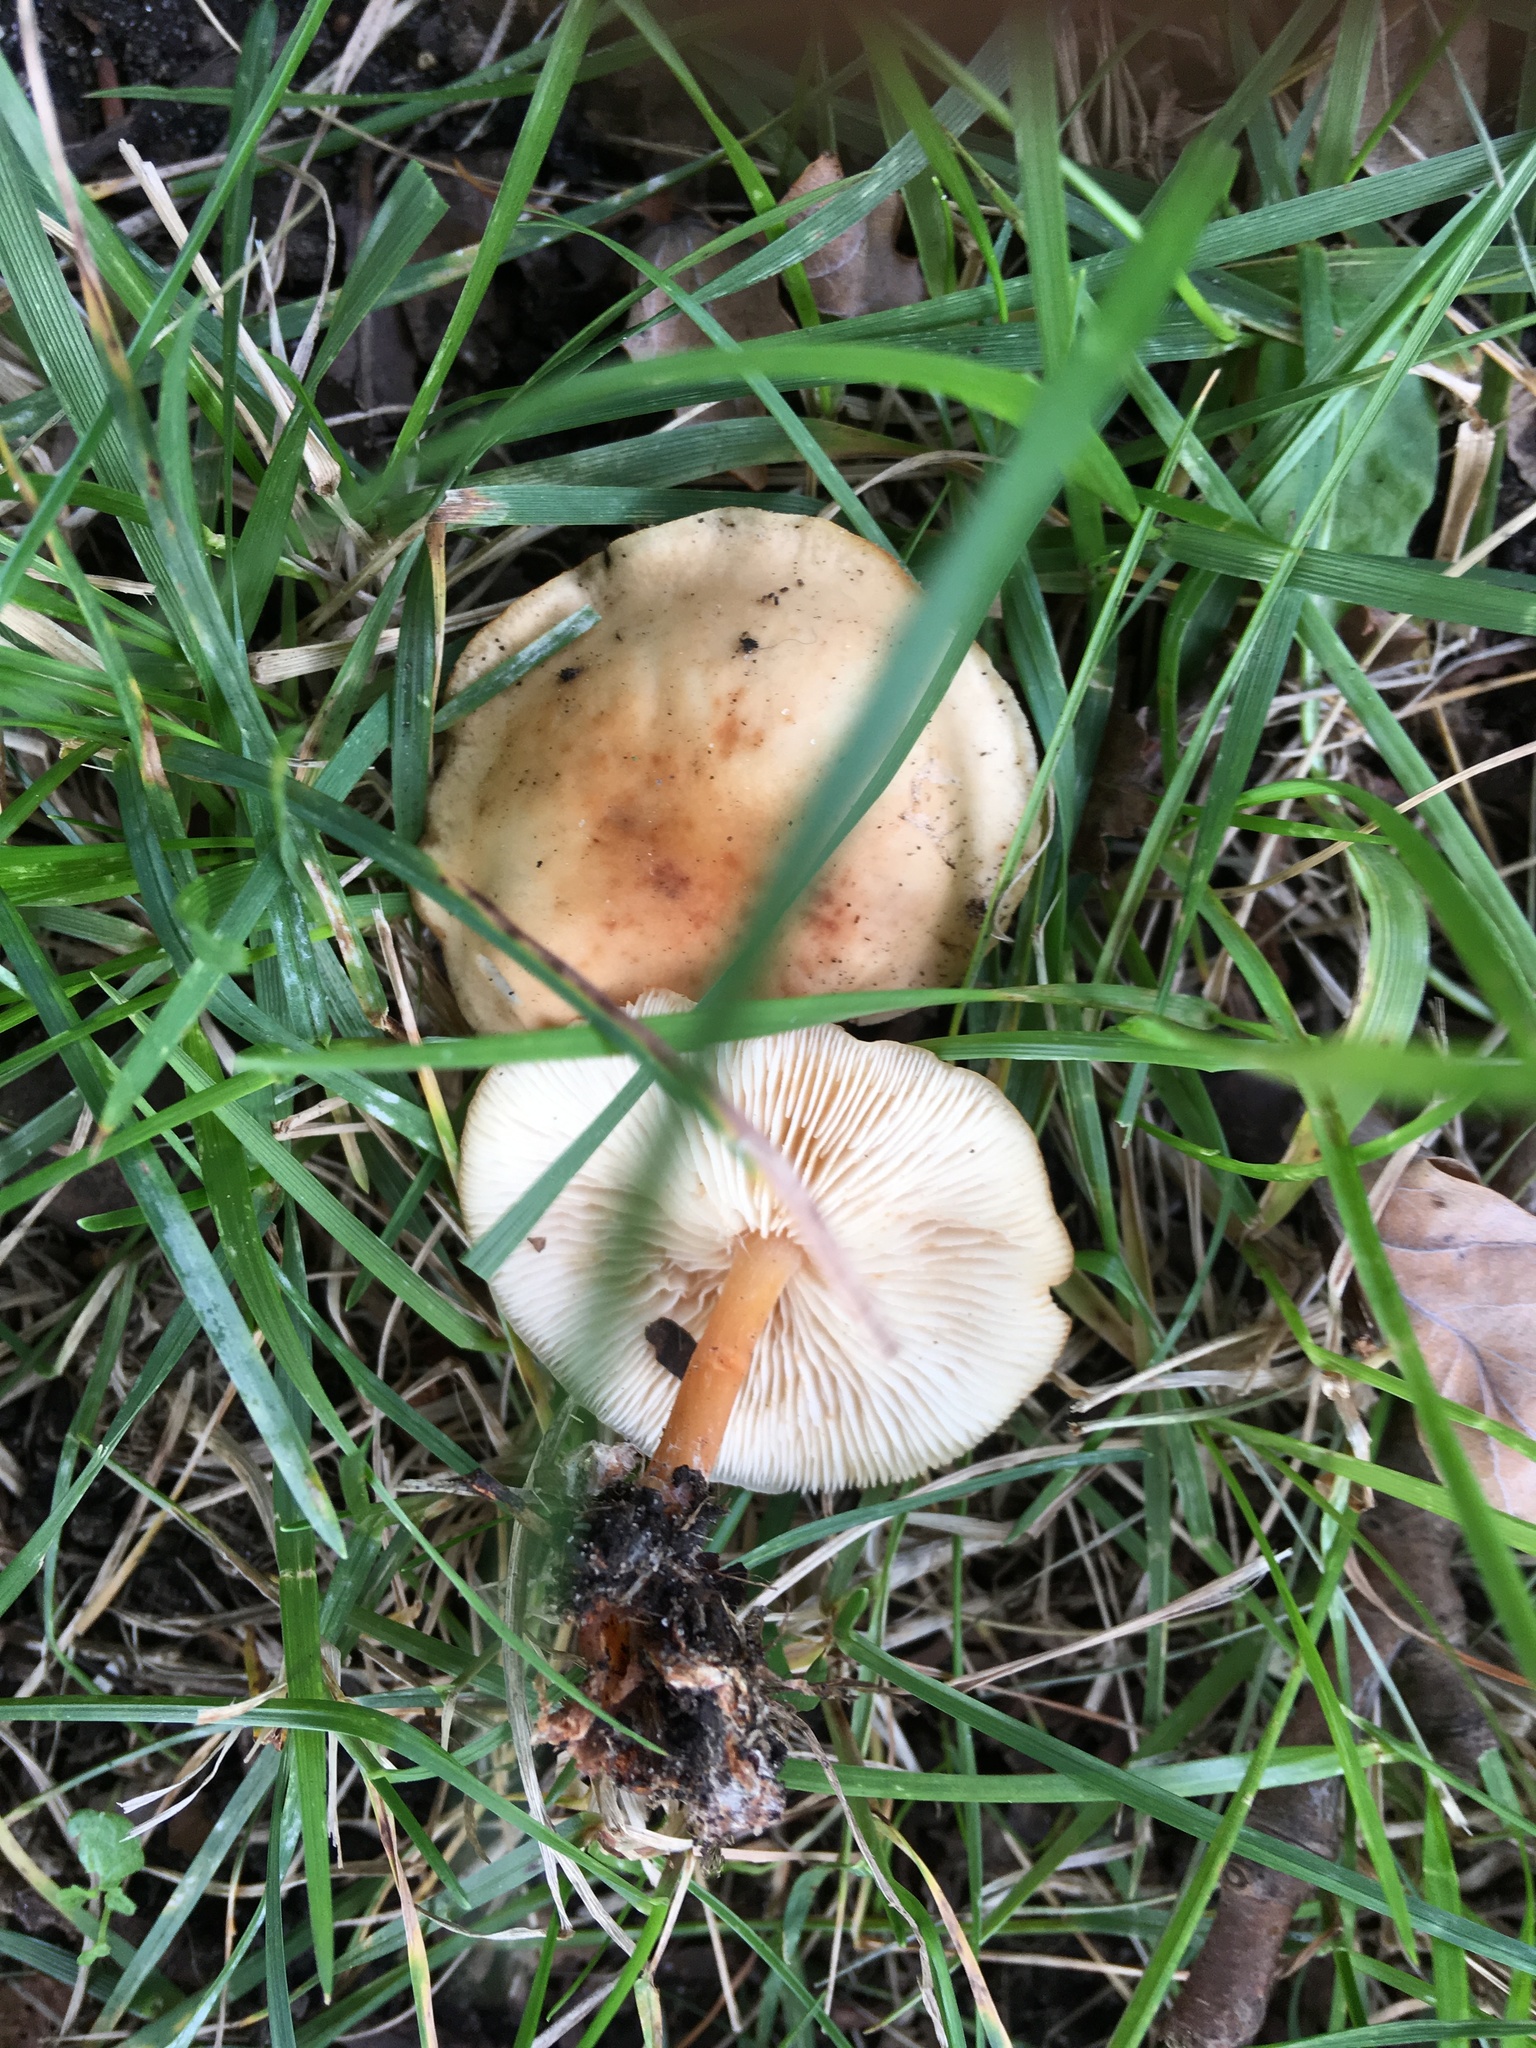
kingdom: Fungi
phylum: Basidiomycota
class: Agaricomycetes
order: Agaricales
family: Omphalotaceae
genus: Gymnopus
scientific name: Gymnopus dryophilus
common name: Penny top
